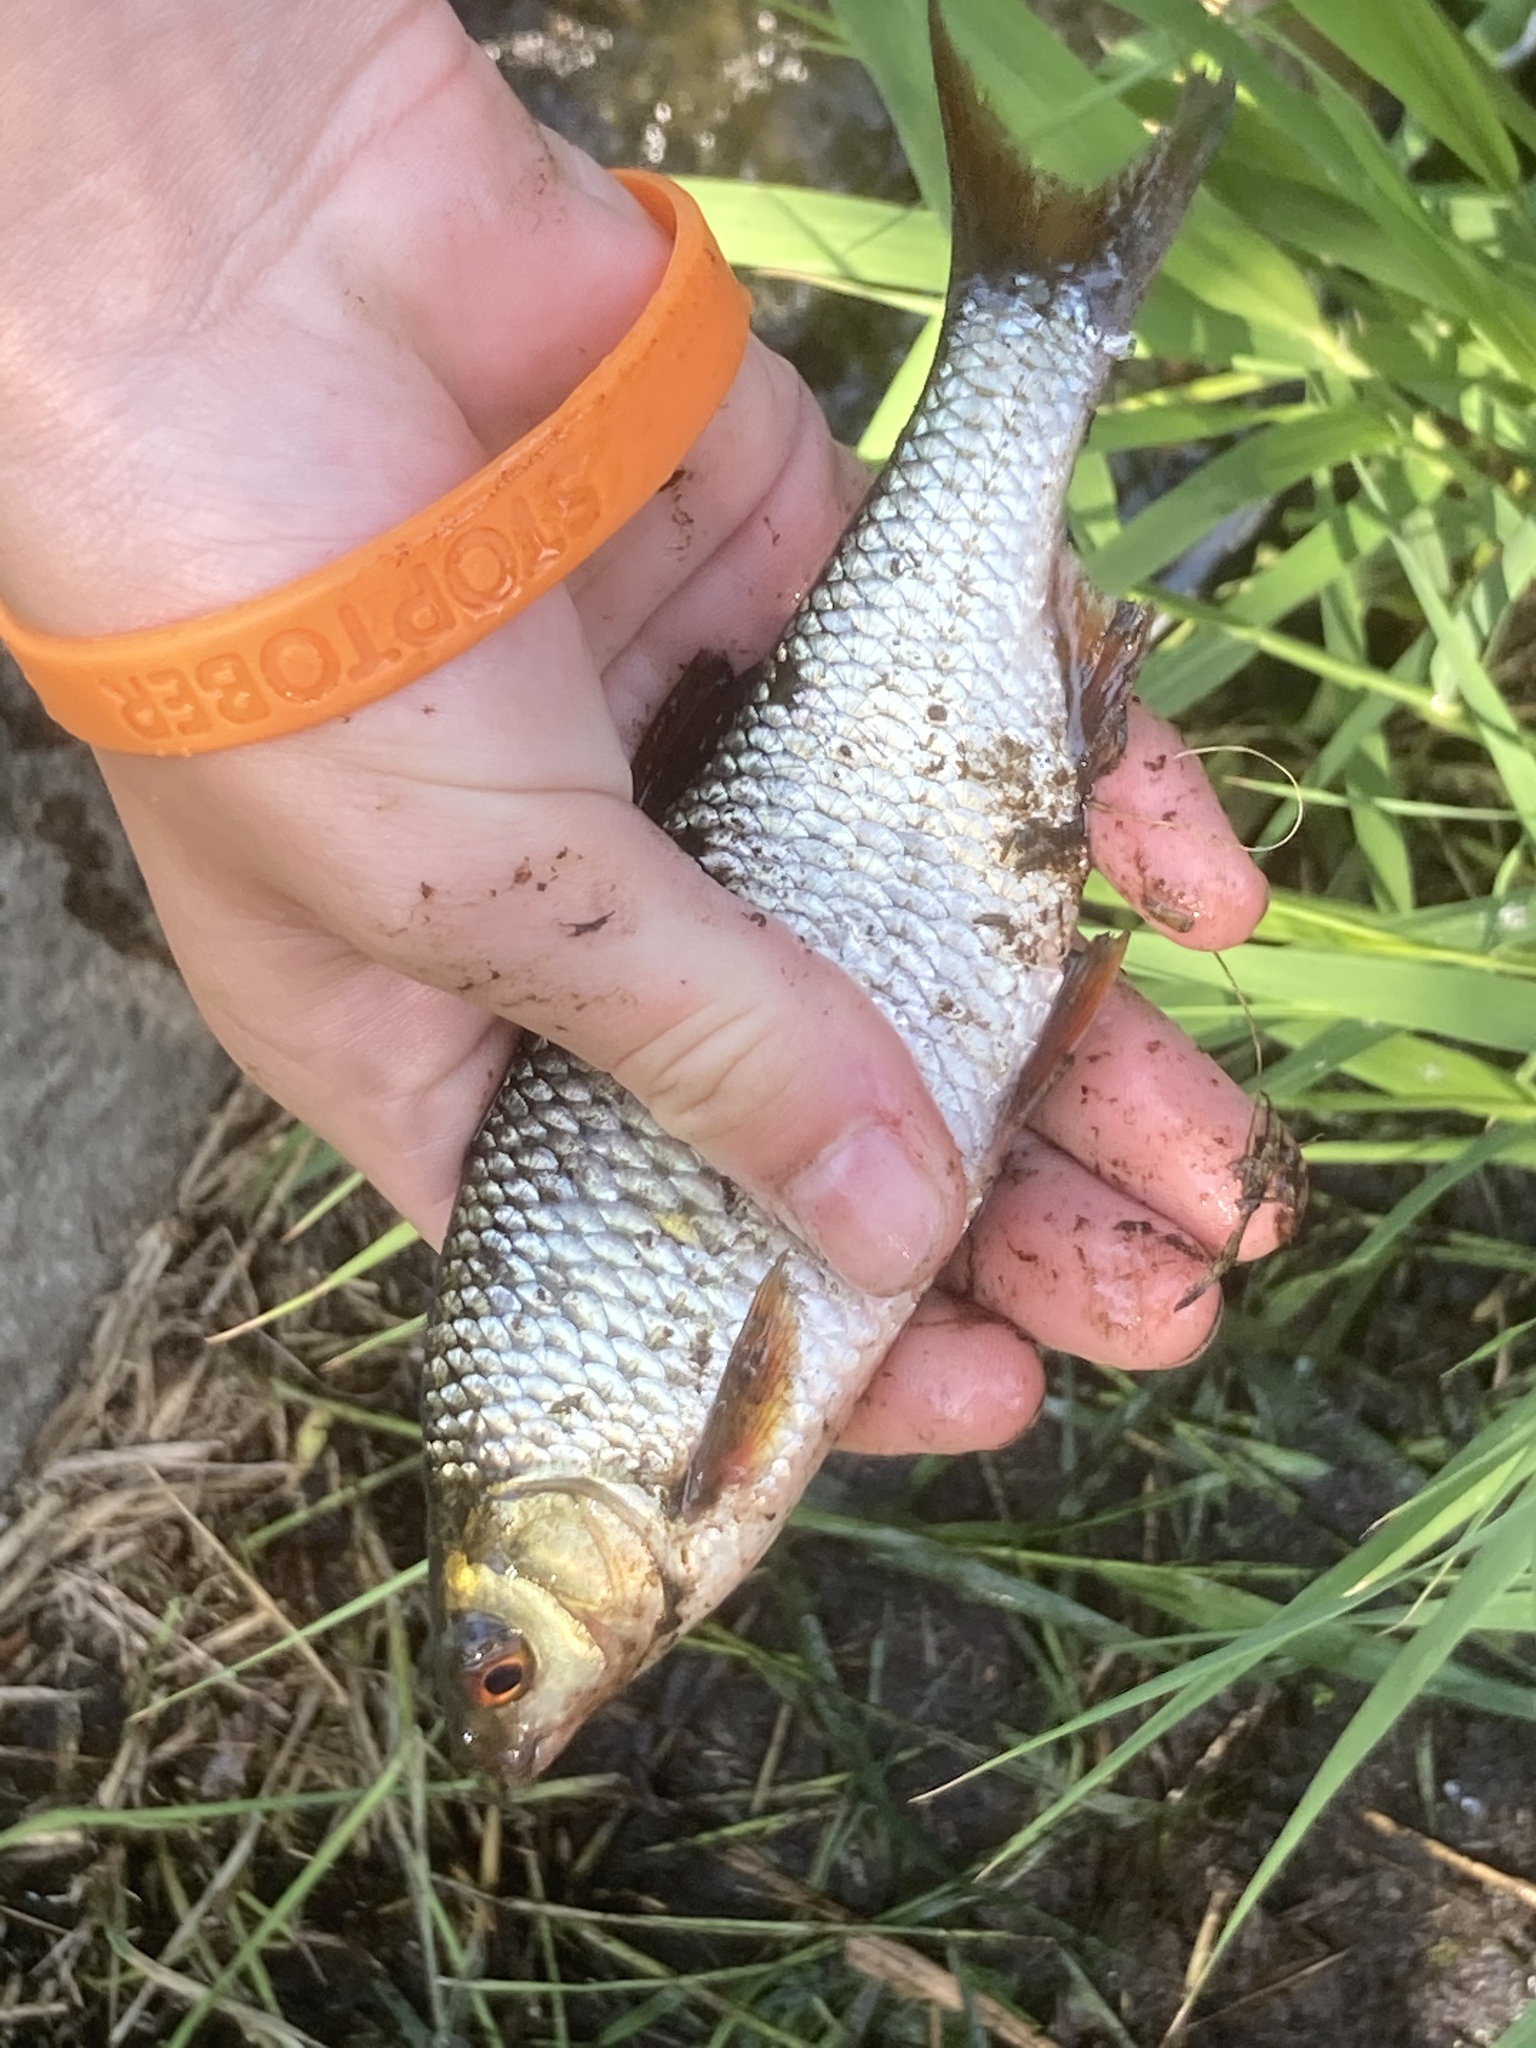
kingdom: Animalia
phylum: Chordata
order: Cypriniformes
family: Cyprinidae
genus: Rutilus
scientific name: Rutilus rutilus
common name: Roach
